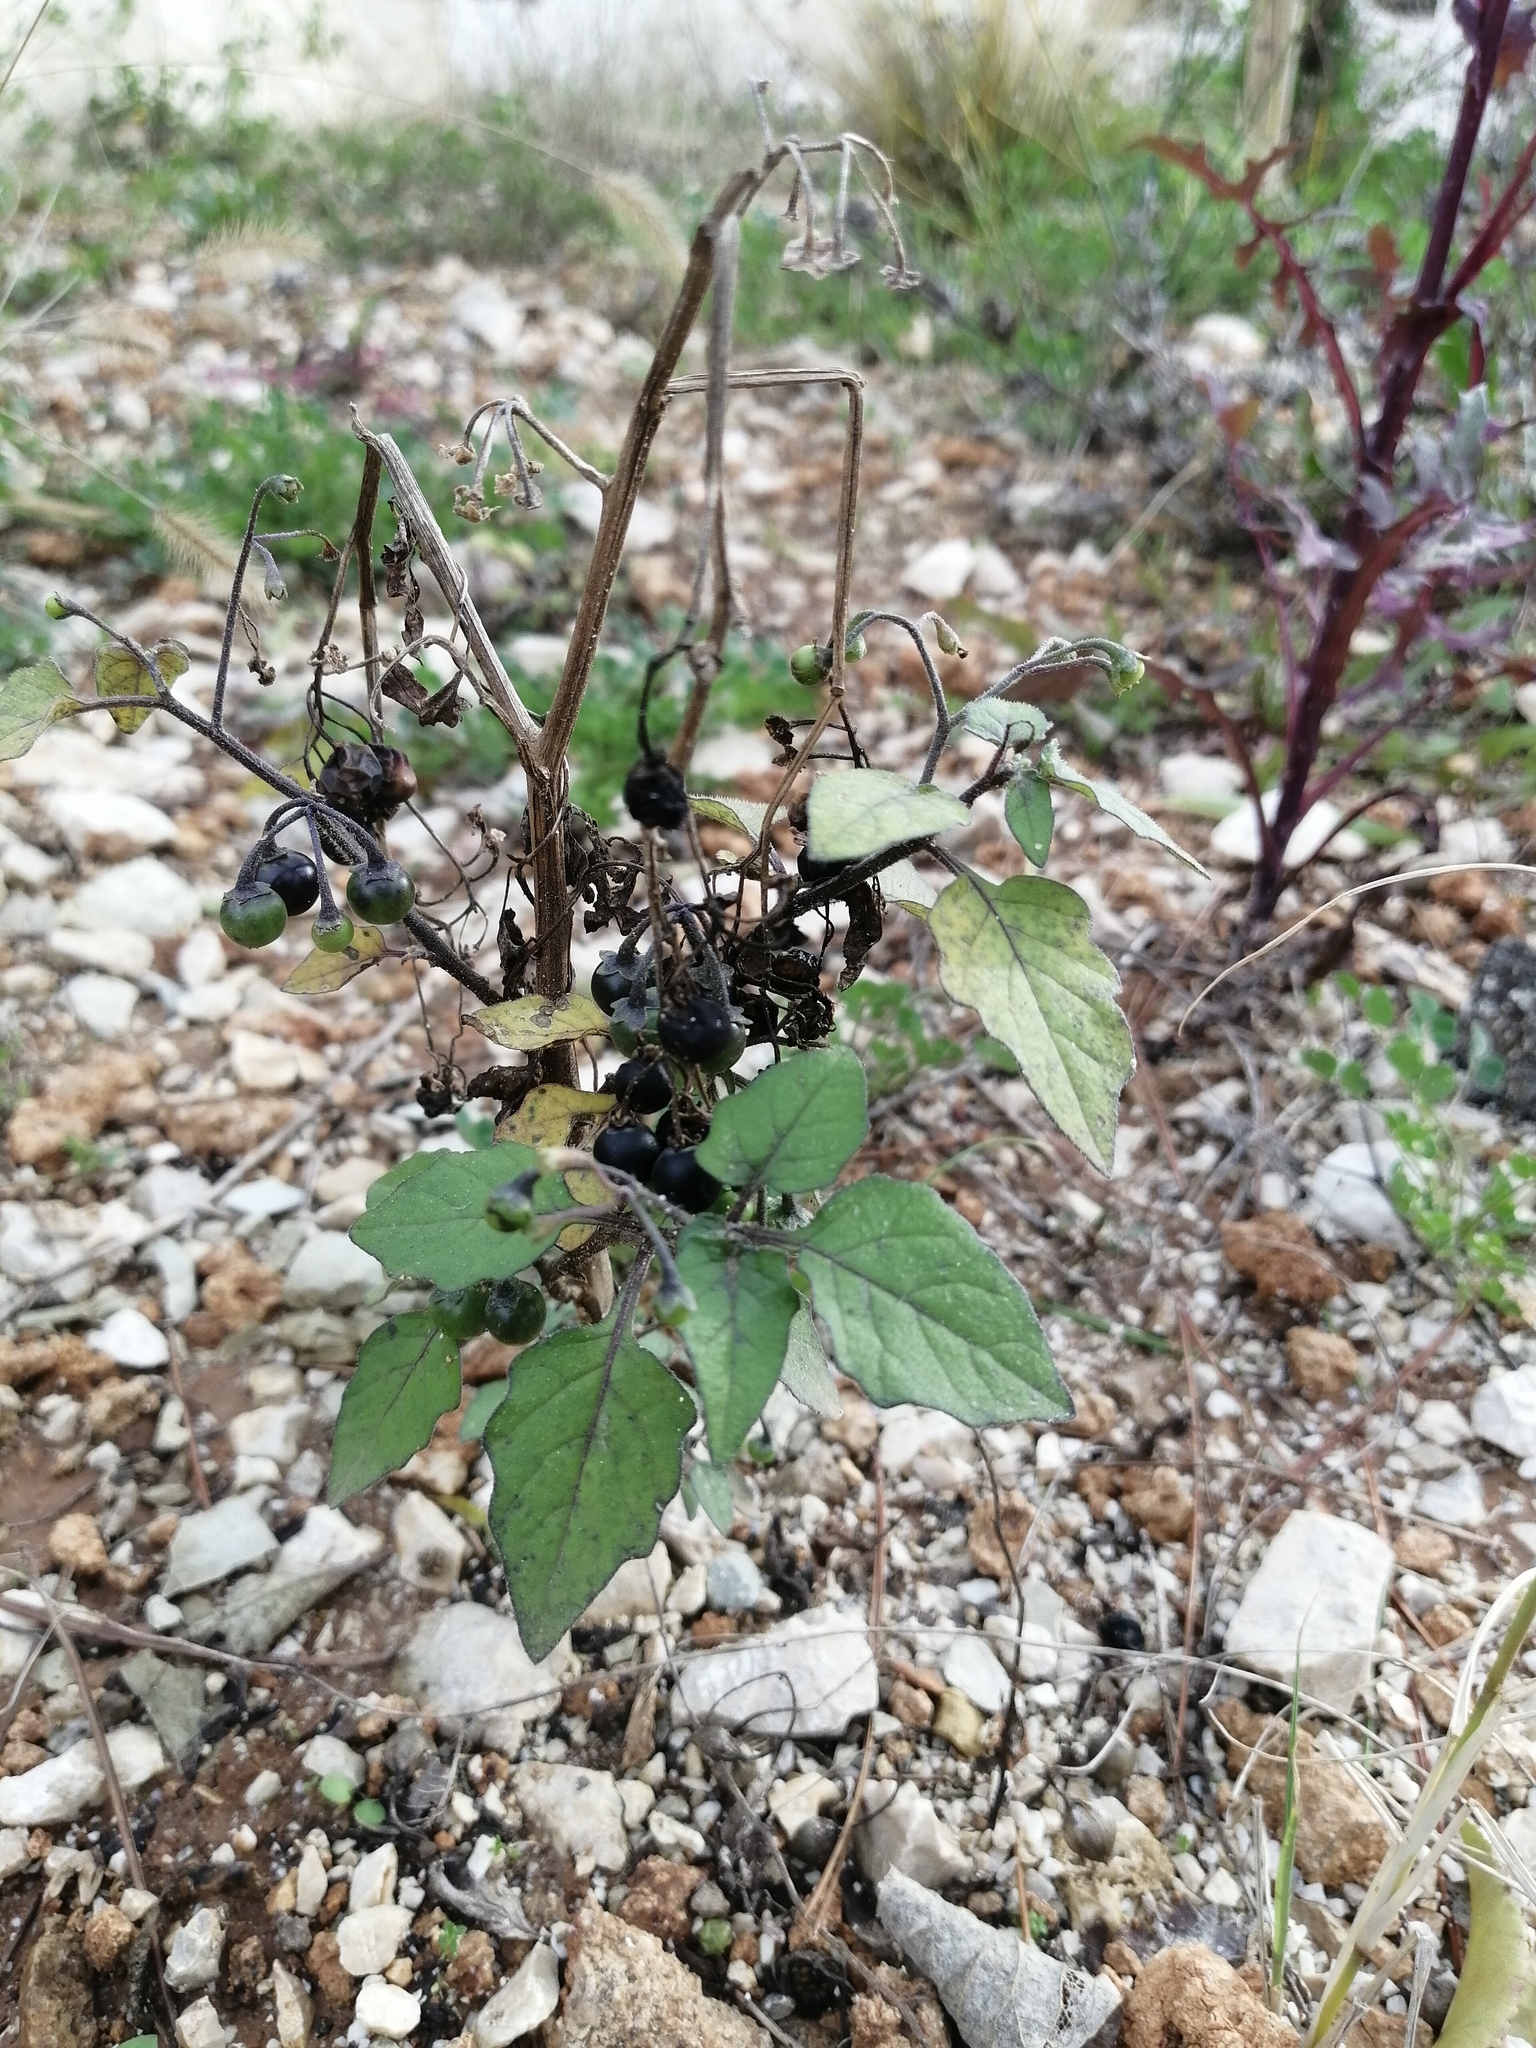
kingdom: Plantae
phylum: Tracheophyta
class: Magnoliopsida
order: Solanales
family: Solanaceae
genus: Solanum
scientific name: Solanum nigrum
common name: Black nightshade
